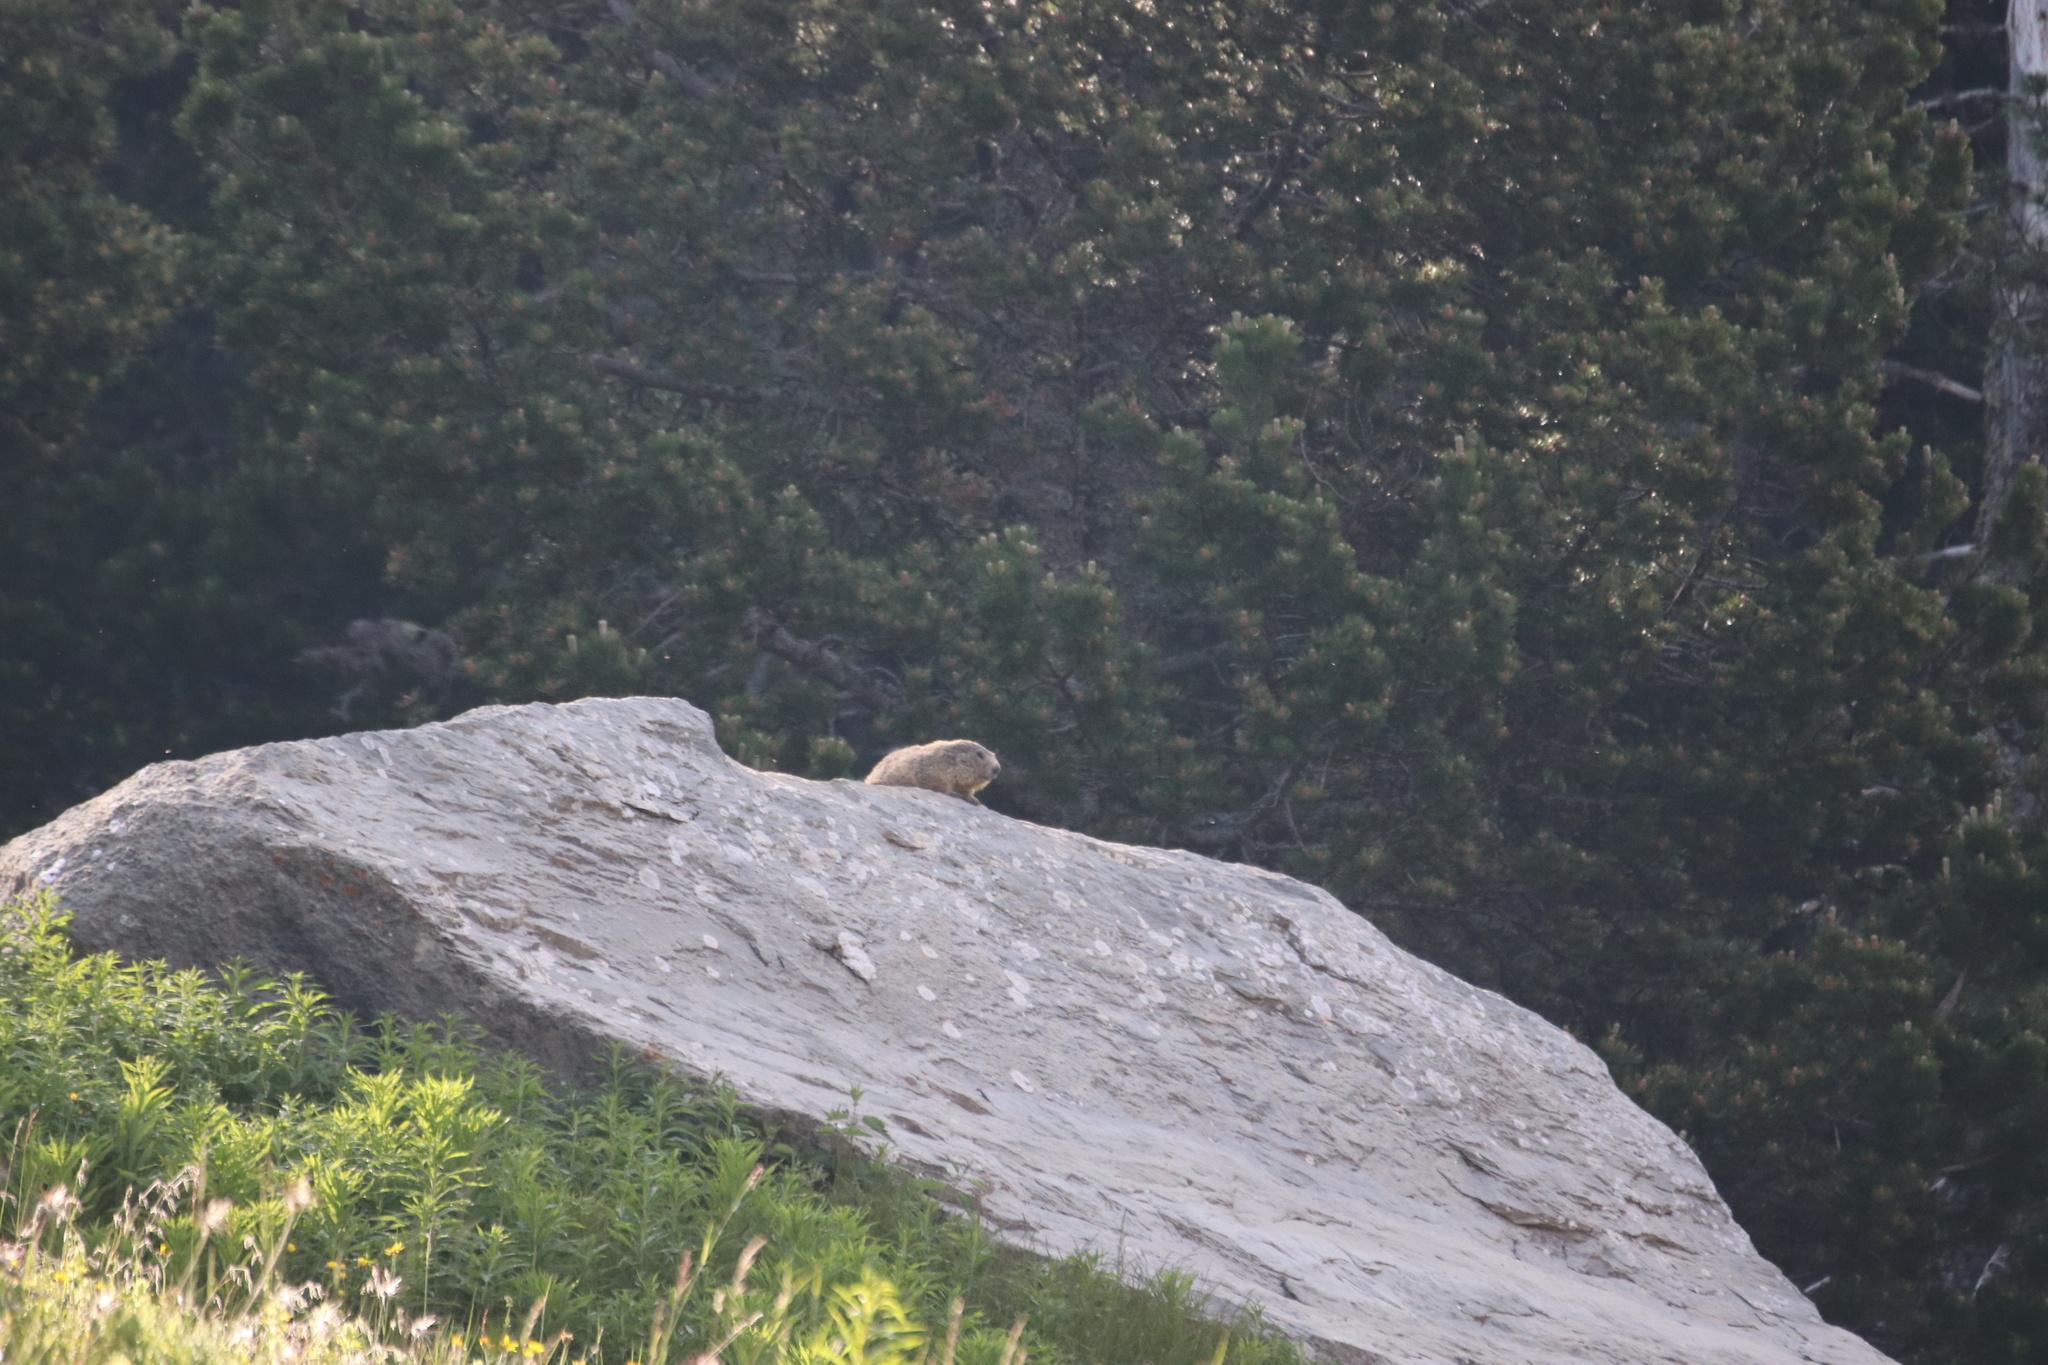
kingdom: Animalia
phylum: Chordata
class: Mammalia
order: Rodentia
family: Sciuridae
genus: Marmota
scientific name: Marmota marmota
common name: Alpine marmot
